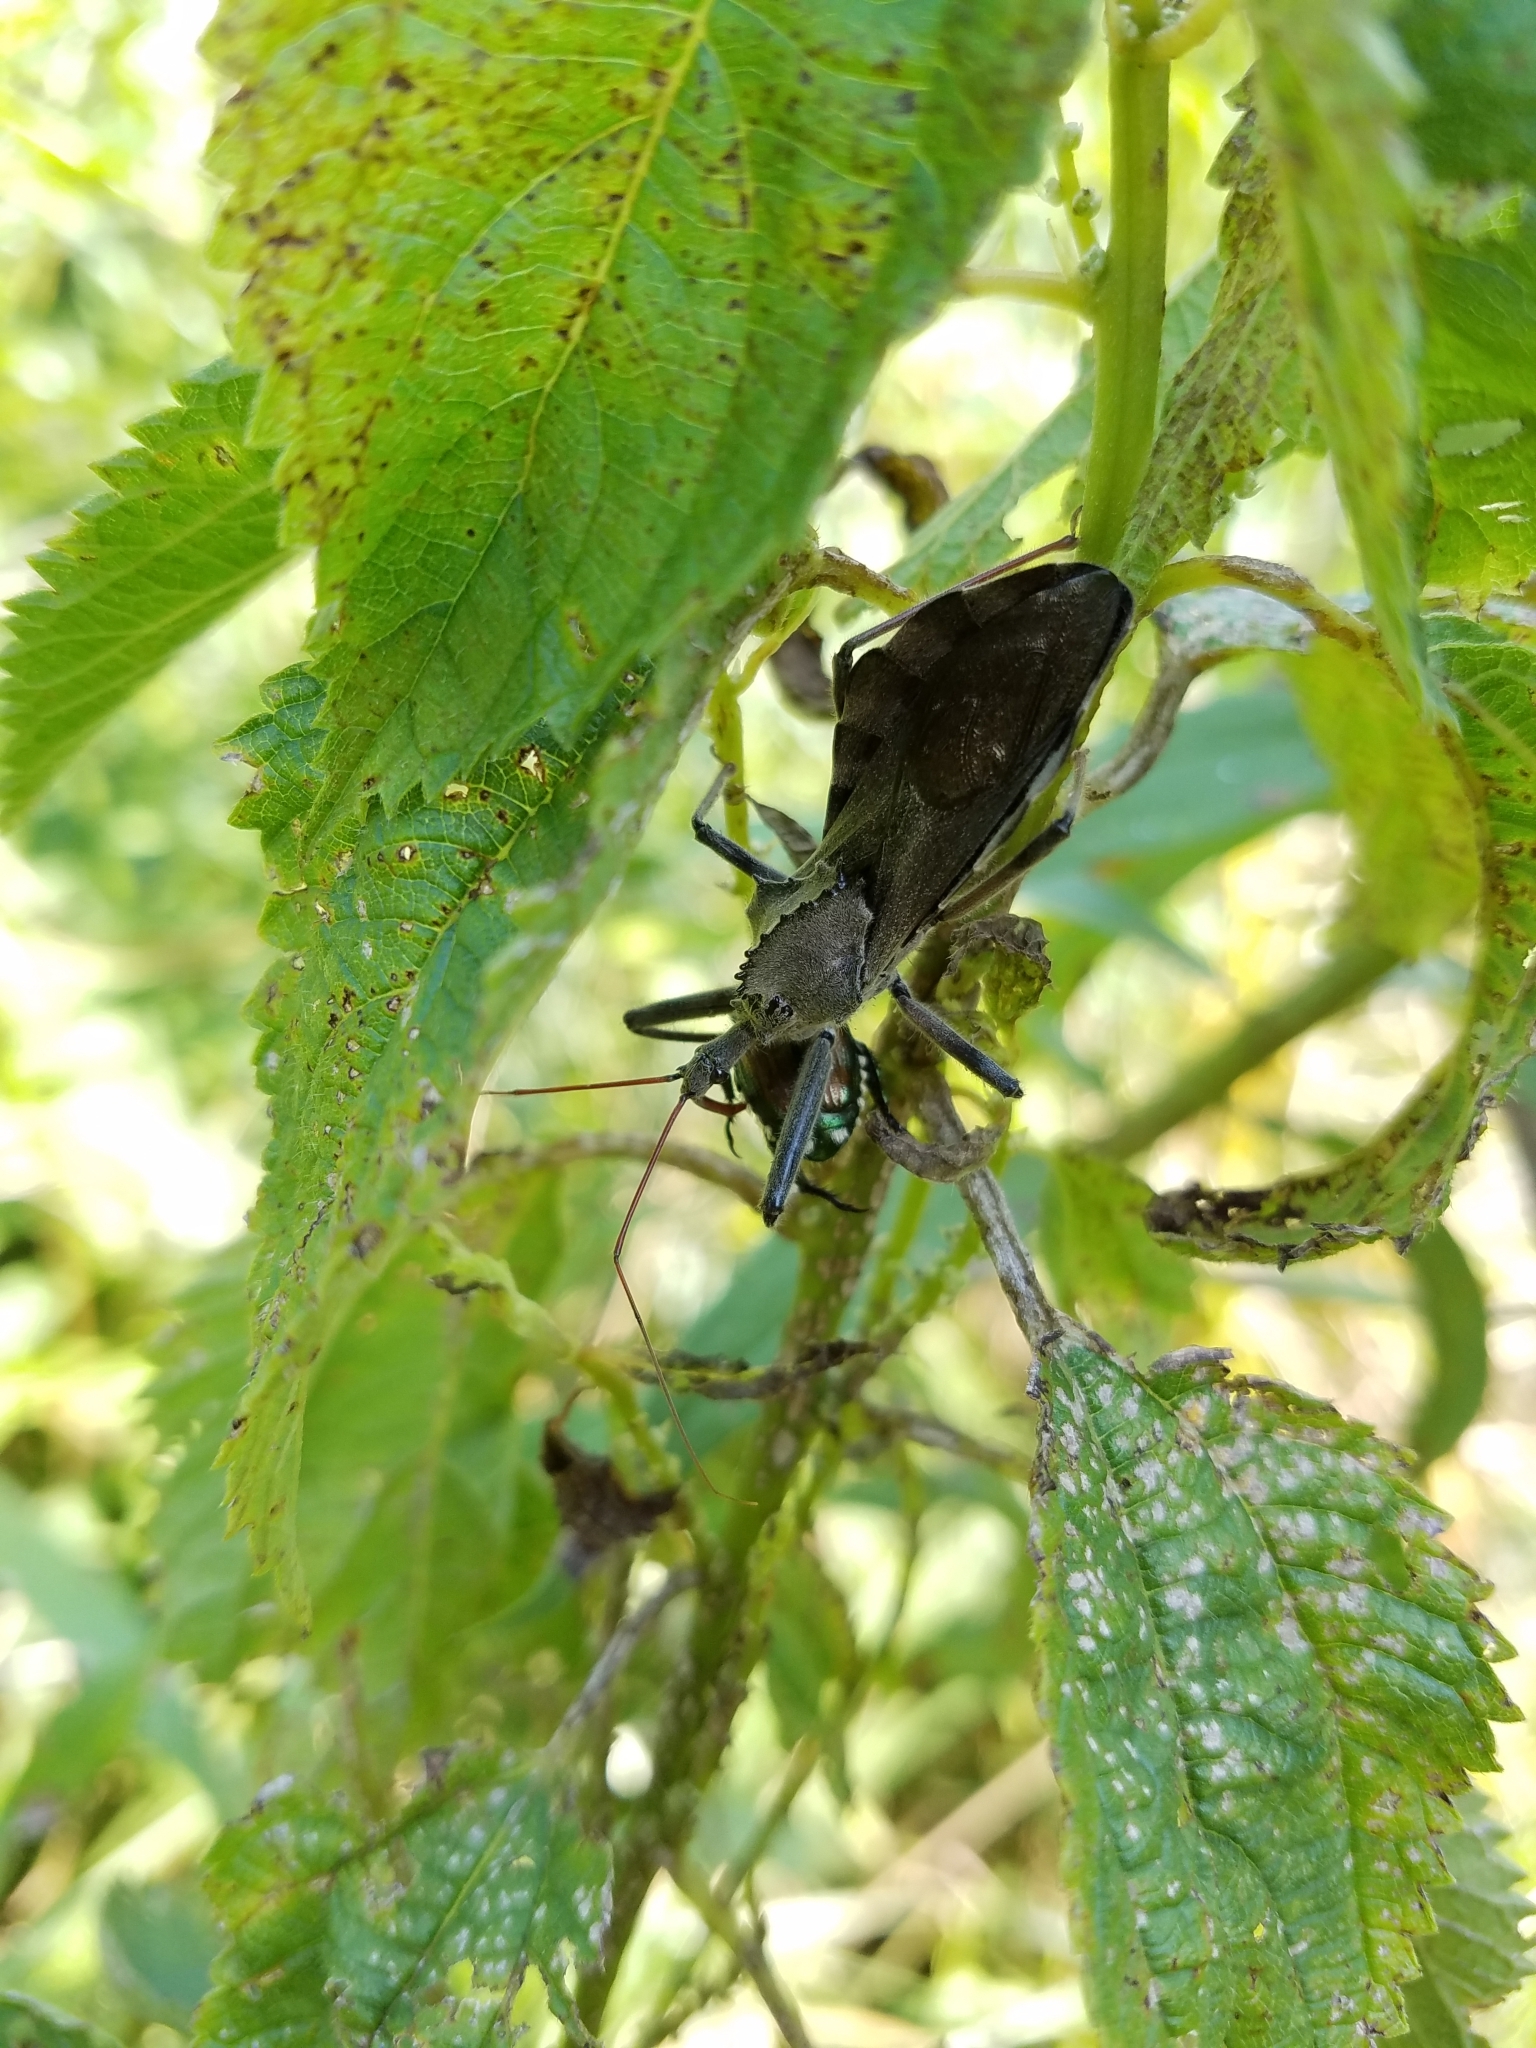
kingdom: Animalia
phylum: Arthropoda
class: Insecta
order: Hemiptera
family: Reduviidae
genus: Arilus
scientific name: Arilus cristatus
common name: North american wheel bug
